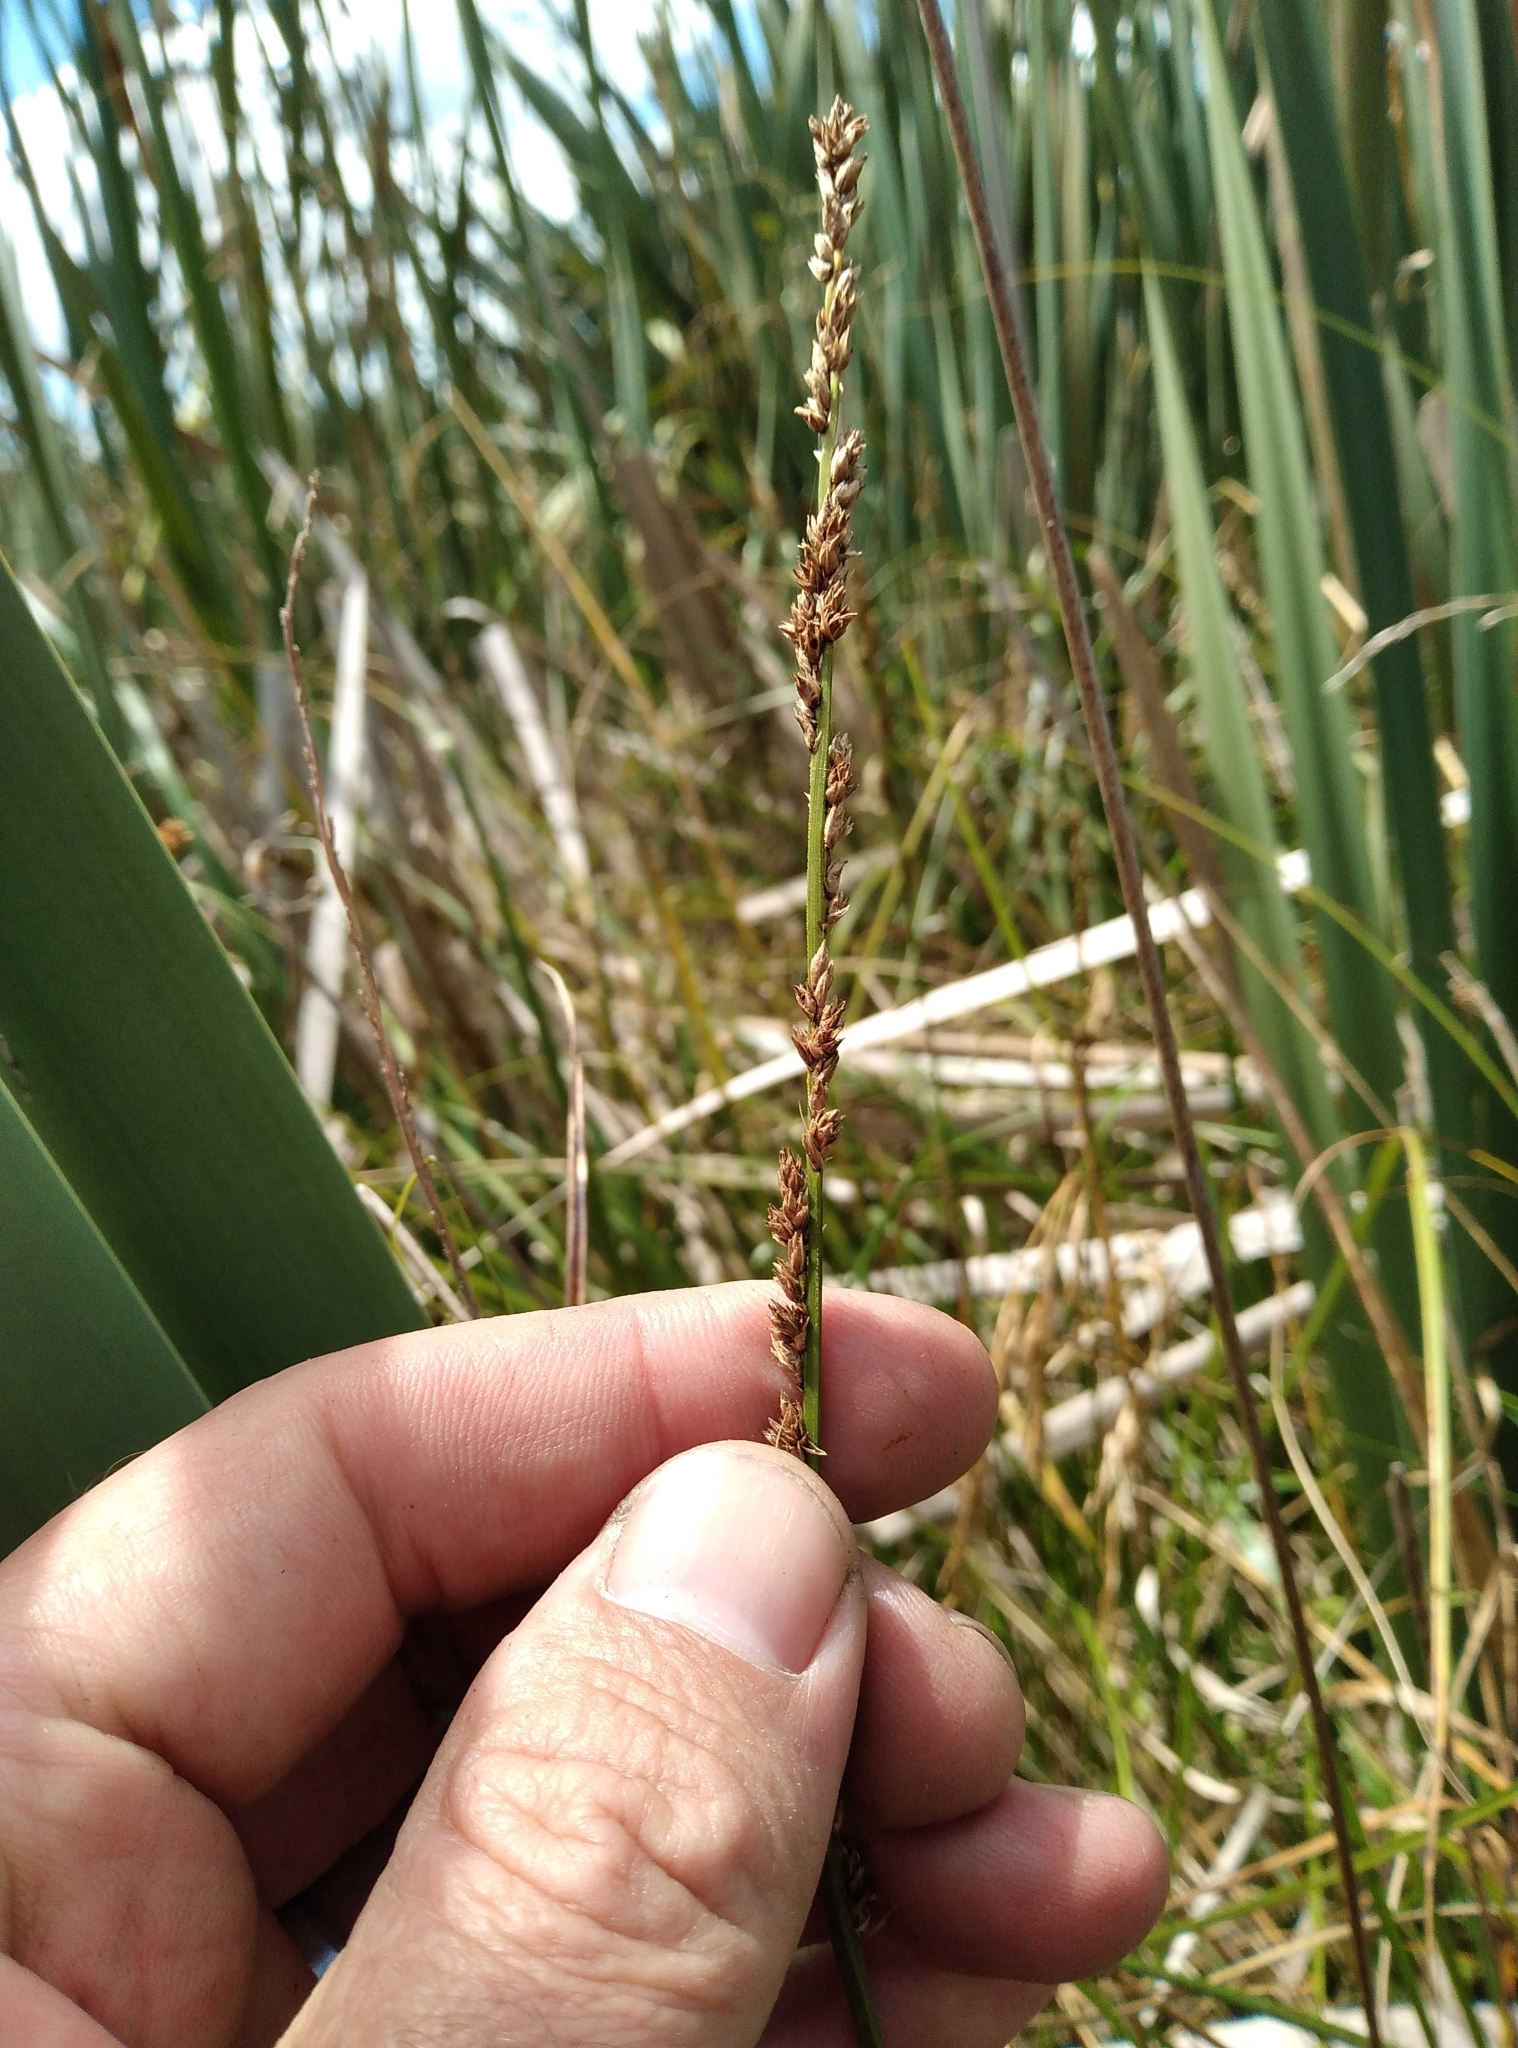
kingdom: Plantae
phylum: Tracheophyta
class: Liliopsida
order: Poales
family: Cyperaceae
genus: Carex
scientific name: Carex virgata
